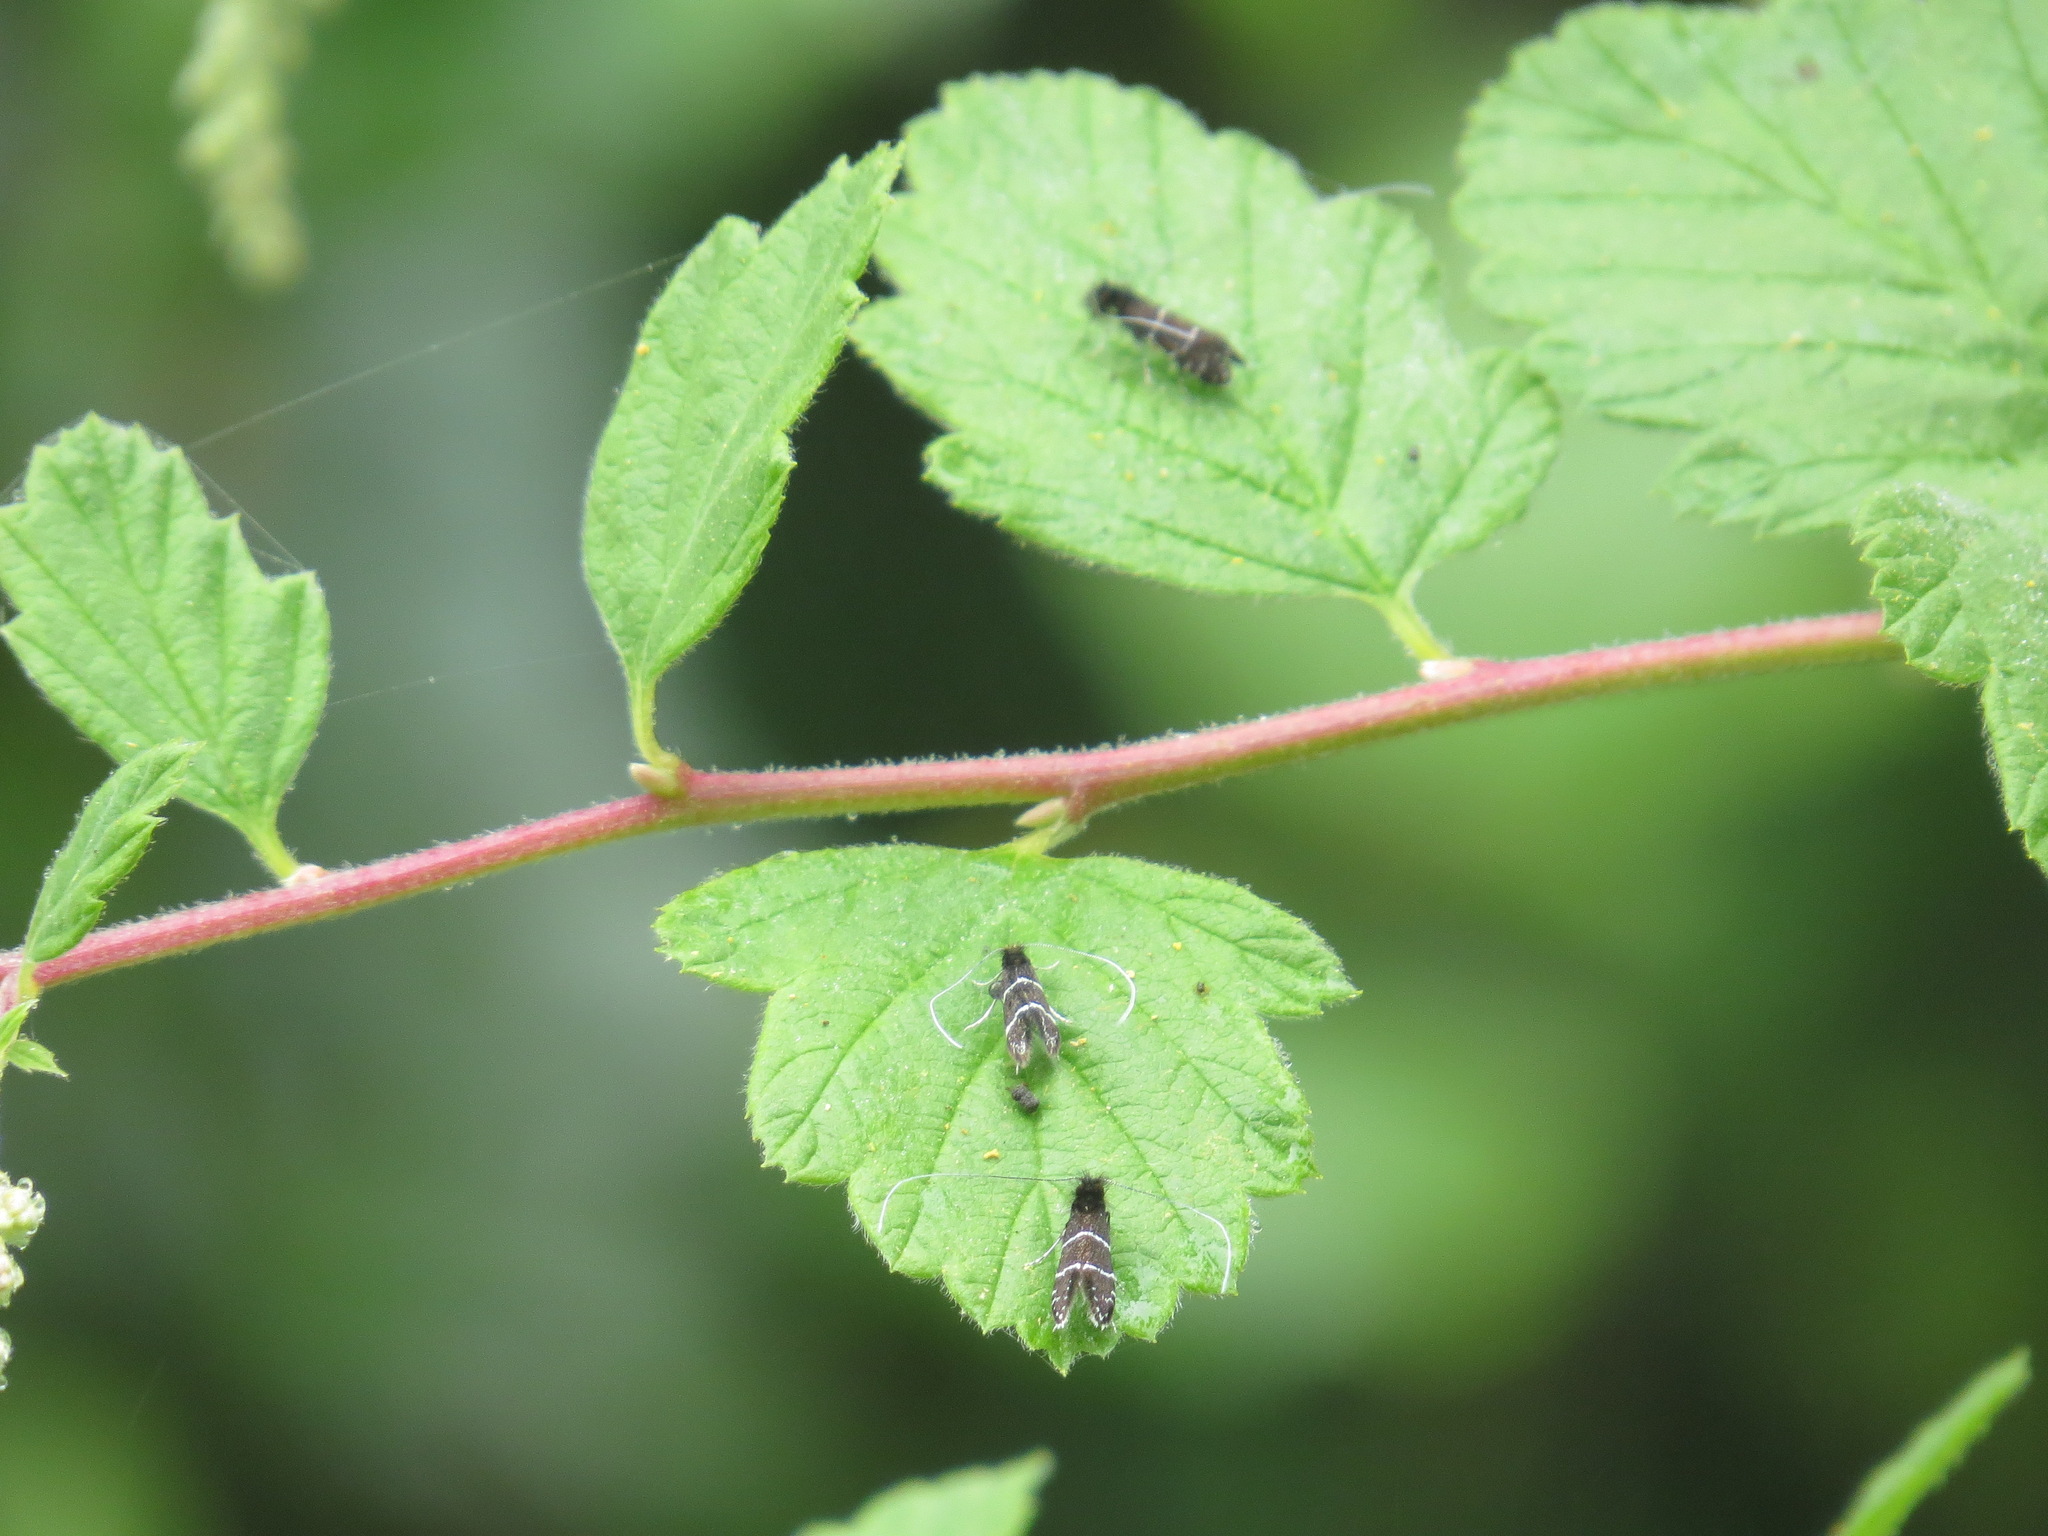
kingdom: Animalia
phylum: Arthropoda
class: Insecta
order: Lepidoptera
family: Adelidae
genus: Adela
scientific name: Adela septentrionella
